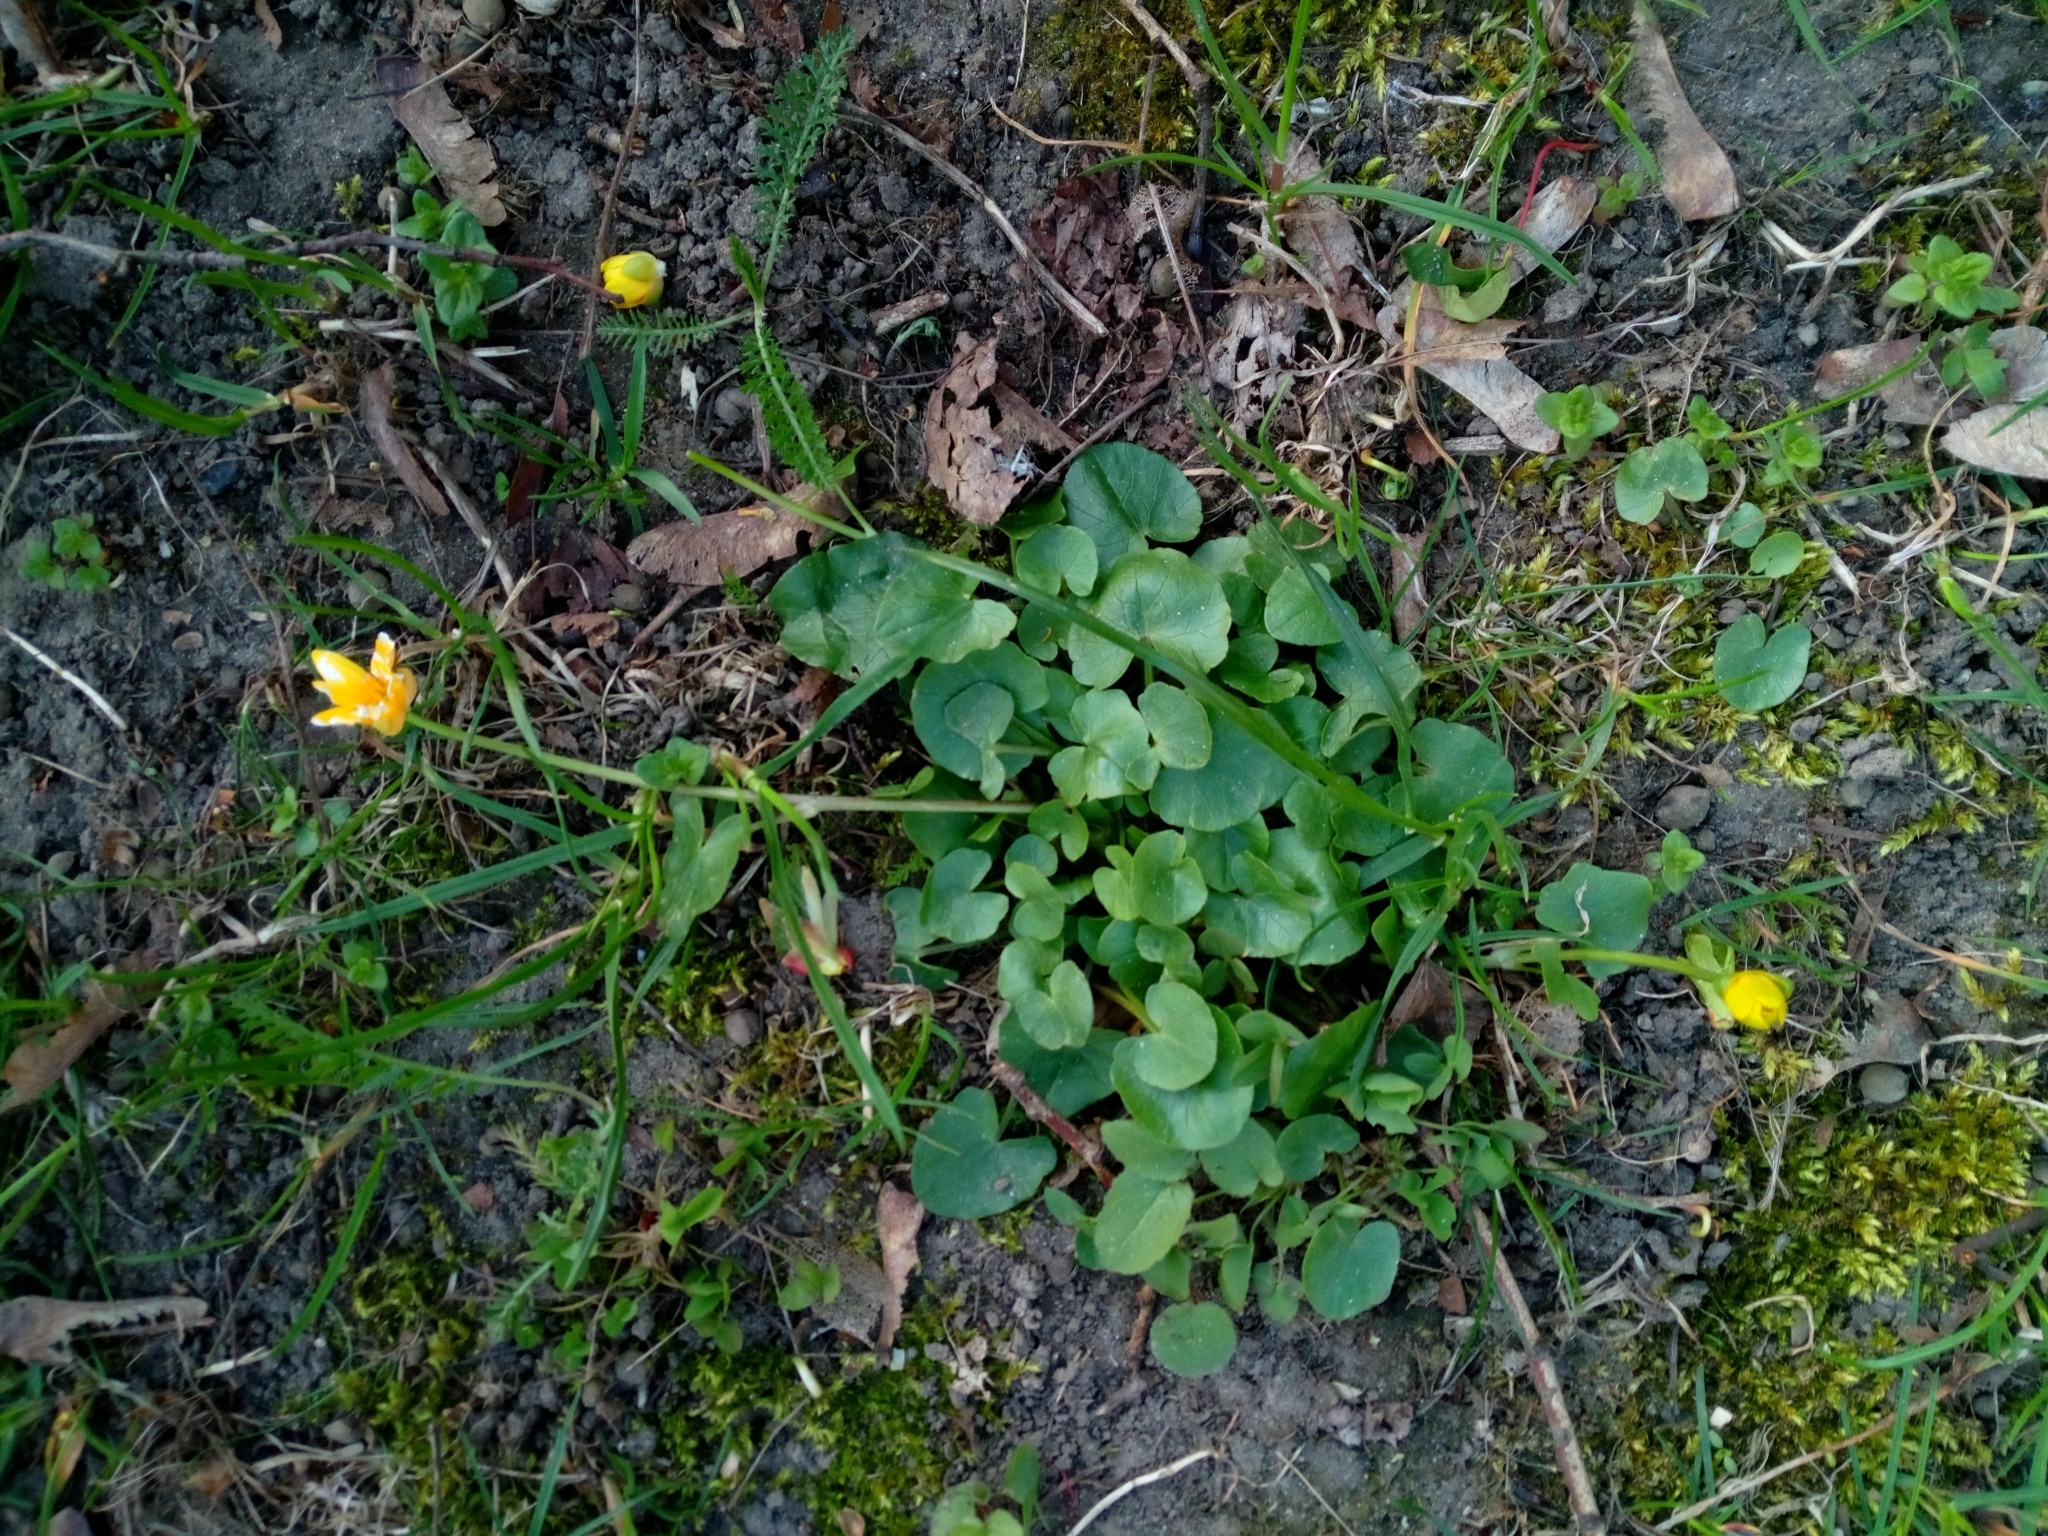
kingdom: Plantae
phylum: Tracheophyta
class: Magnoliopsida
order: Ranunculales
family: Ranunculaceae
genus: Ficaria
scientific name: Ficaria verna
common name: Lesser celandine
